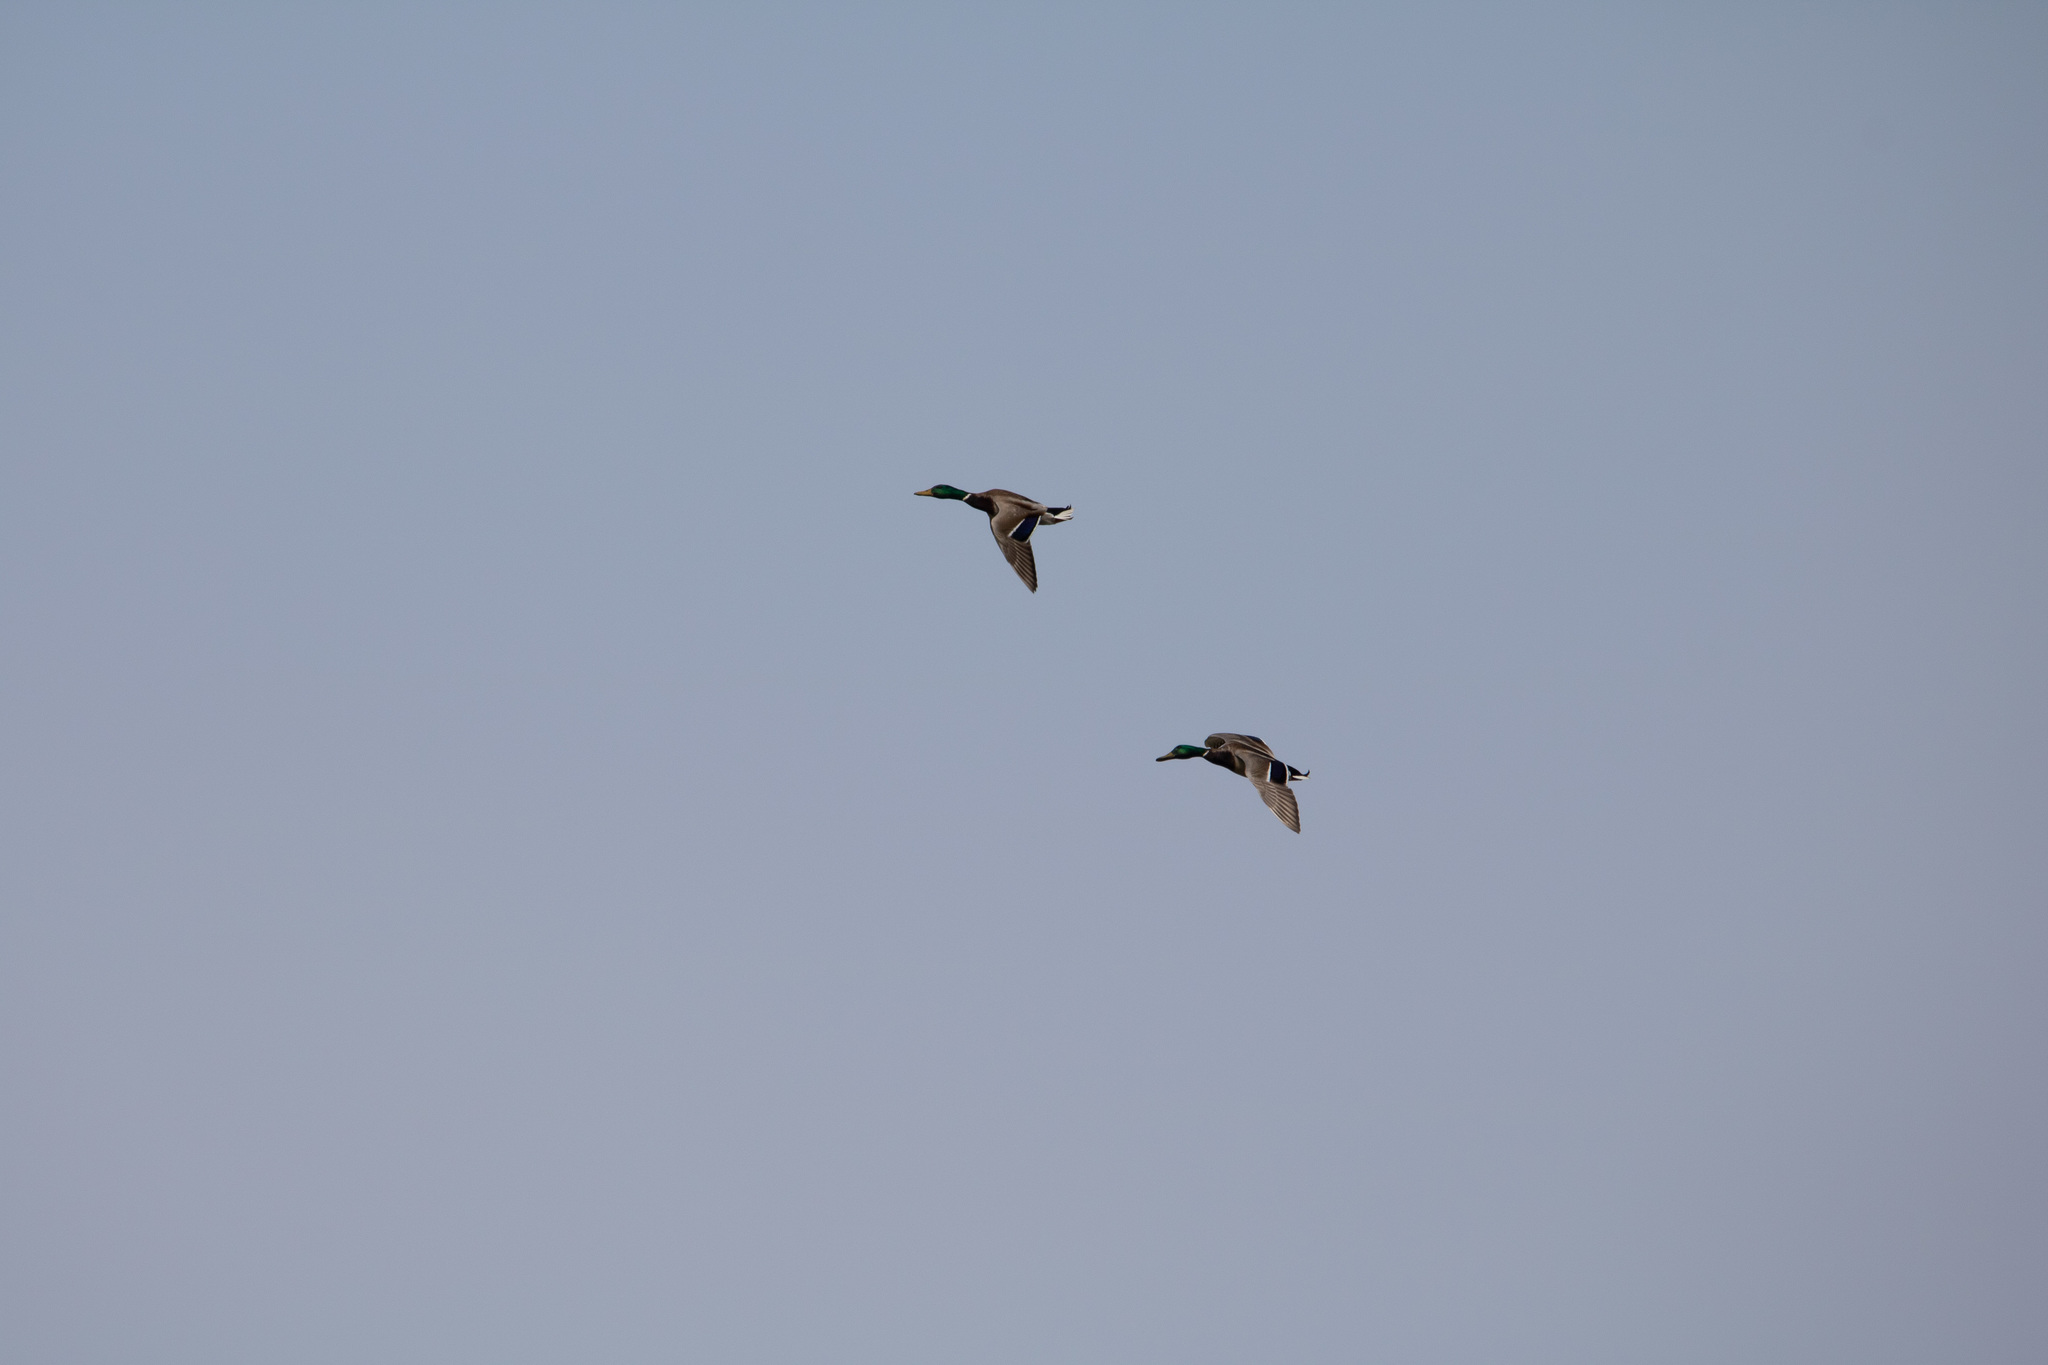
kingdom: Animalia
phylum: Chordata
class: Aves
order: Anseriformes
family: Anatidae
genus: Anas
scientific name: Anas platyrhynchos
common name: Mallard
